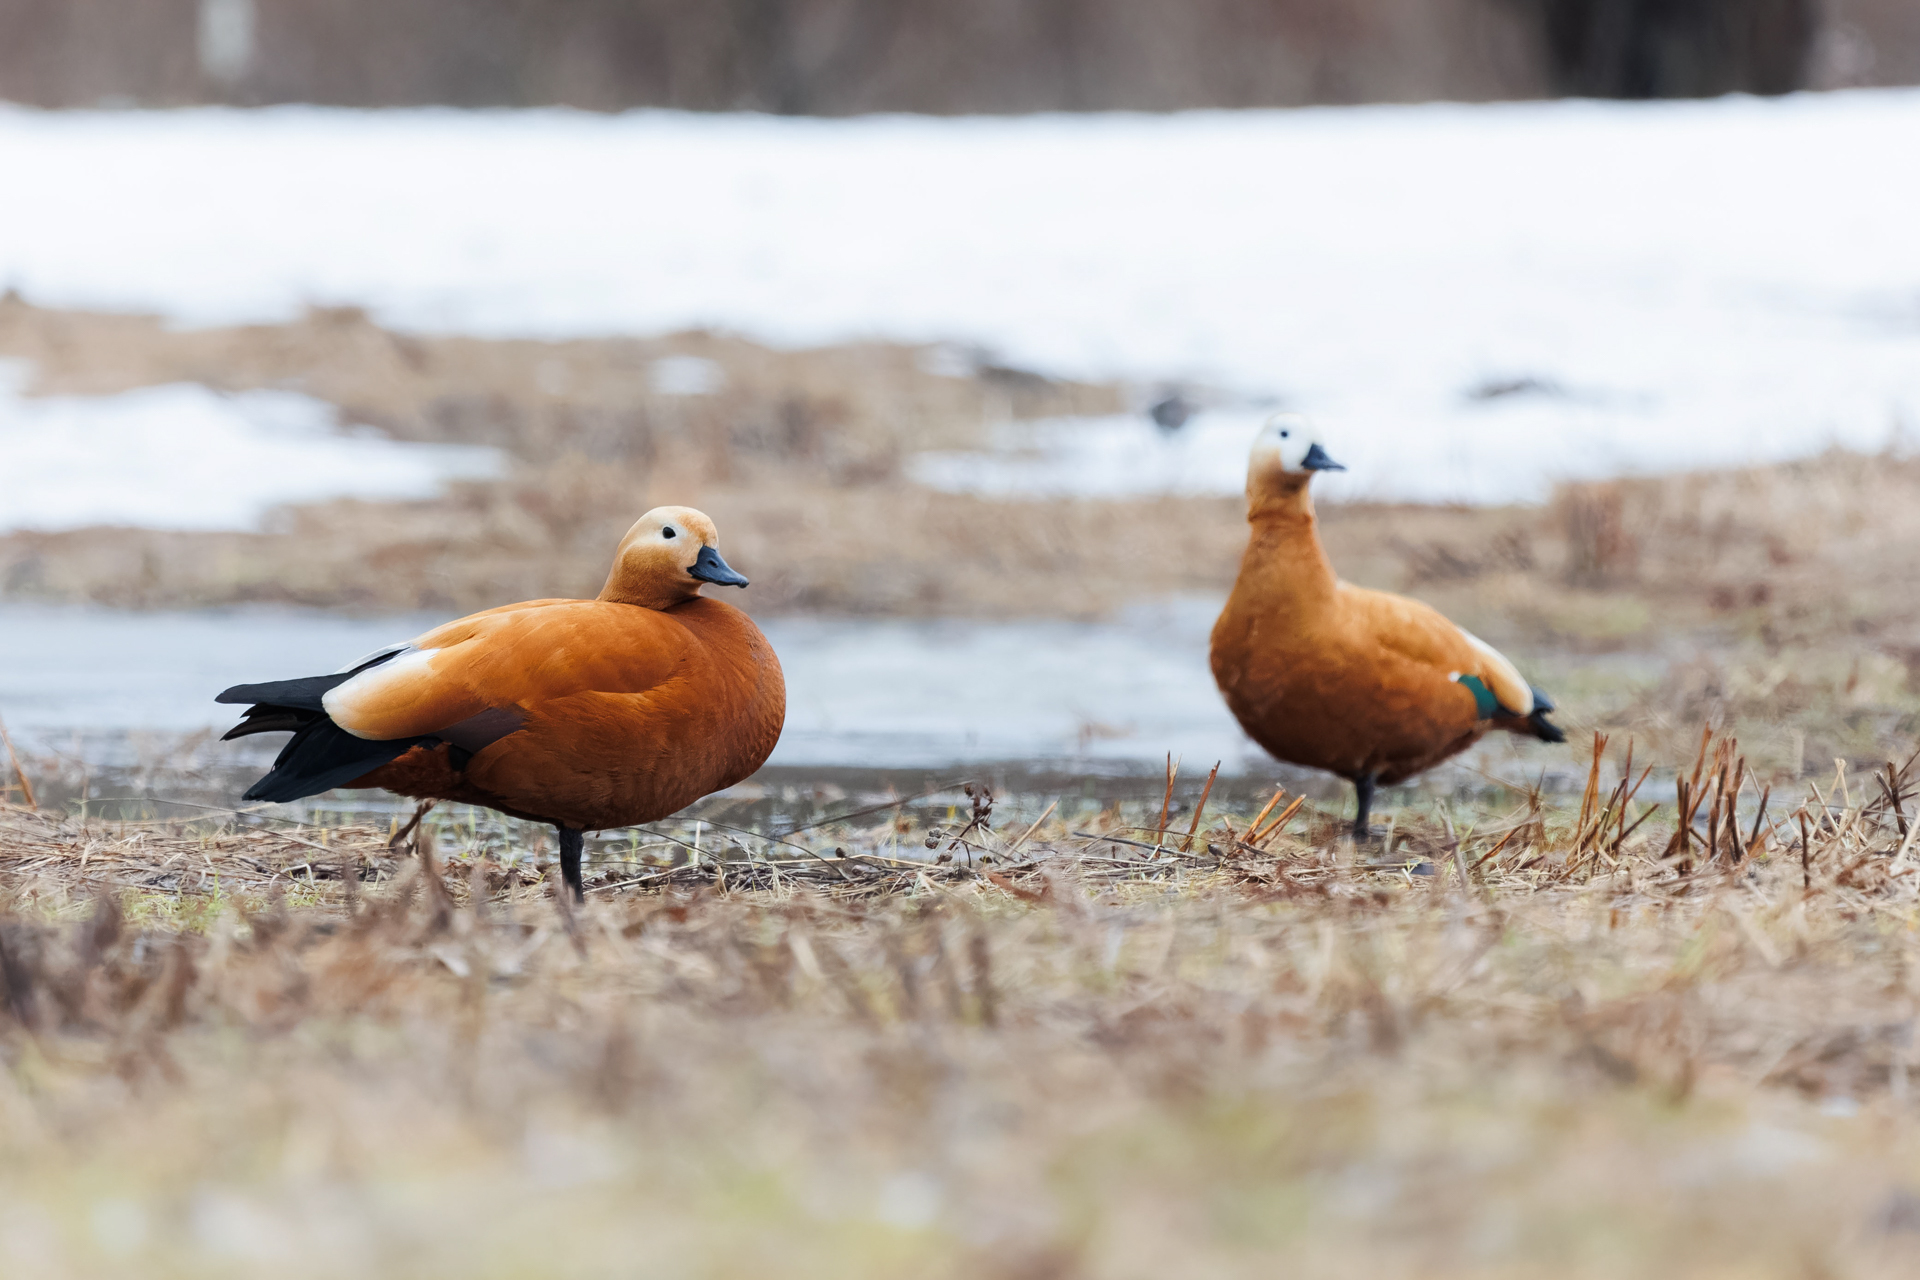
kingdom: Animalia
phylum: Chordata
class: Aves
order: Anseriformes
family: Anatidae
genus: Tadorna
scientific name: Tadorna ferruginea
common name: Ruddy shelduck
